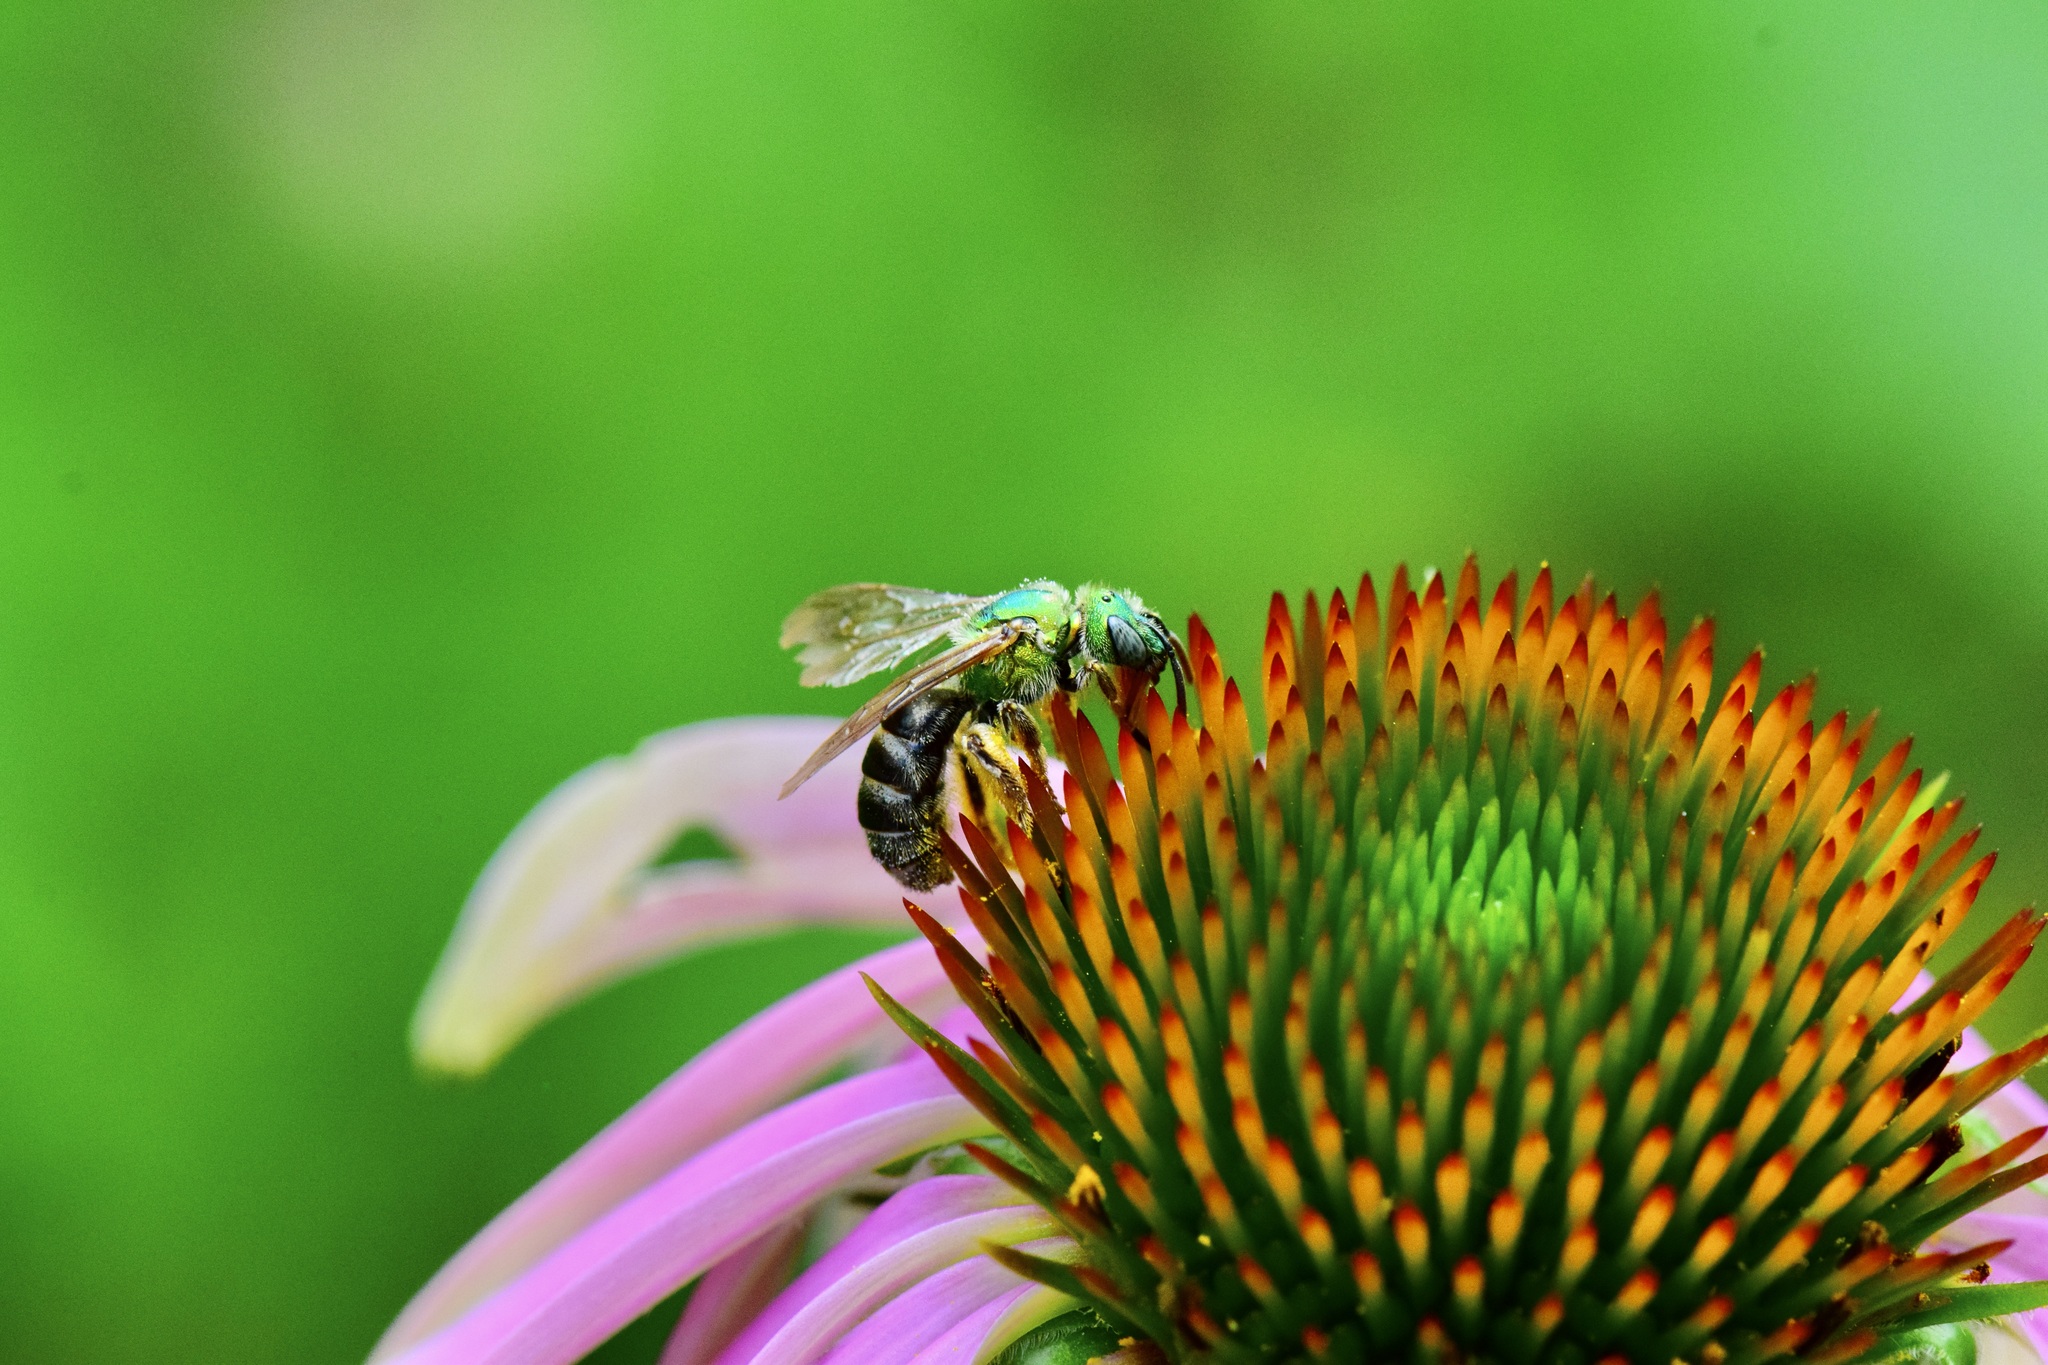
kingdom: Animalia
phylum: Arthropoda
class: Insecta
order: Hymenoptera
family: Halictidae
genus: Agapostemon
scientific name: Agapostemon virescens
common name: Bicolored striped sweat bee
